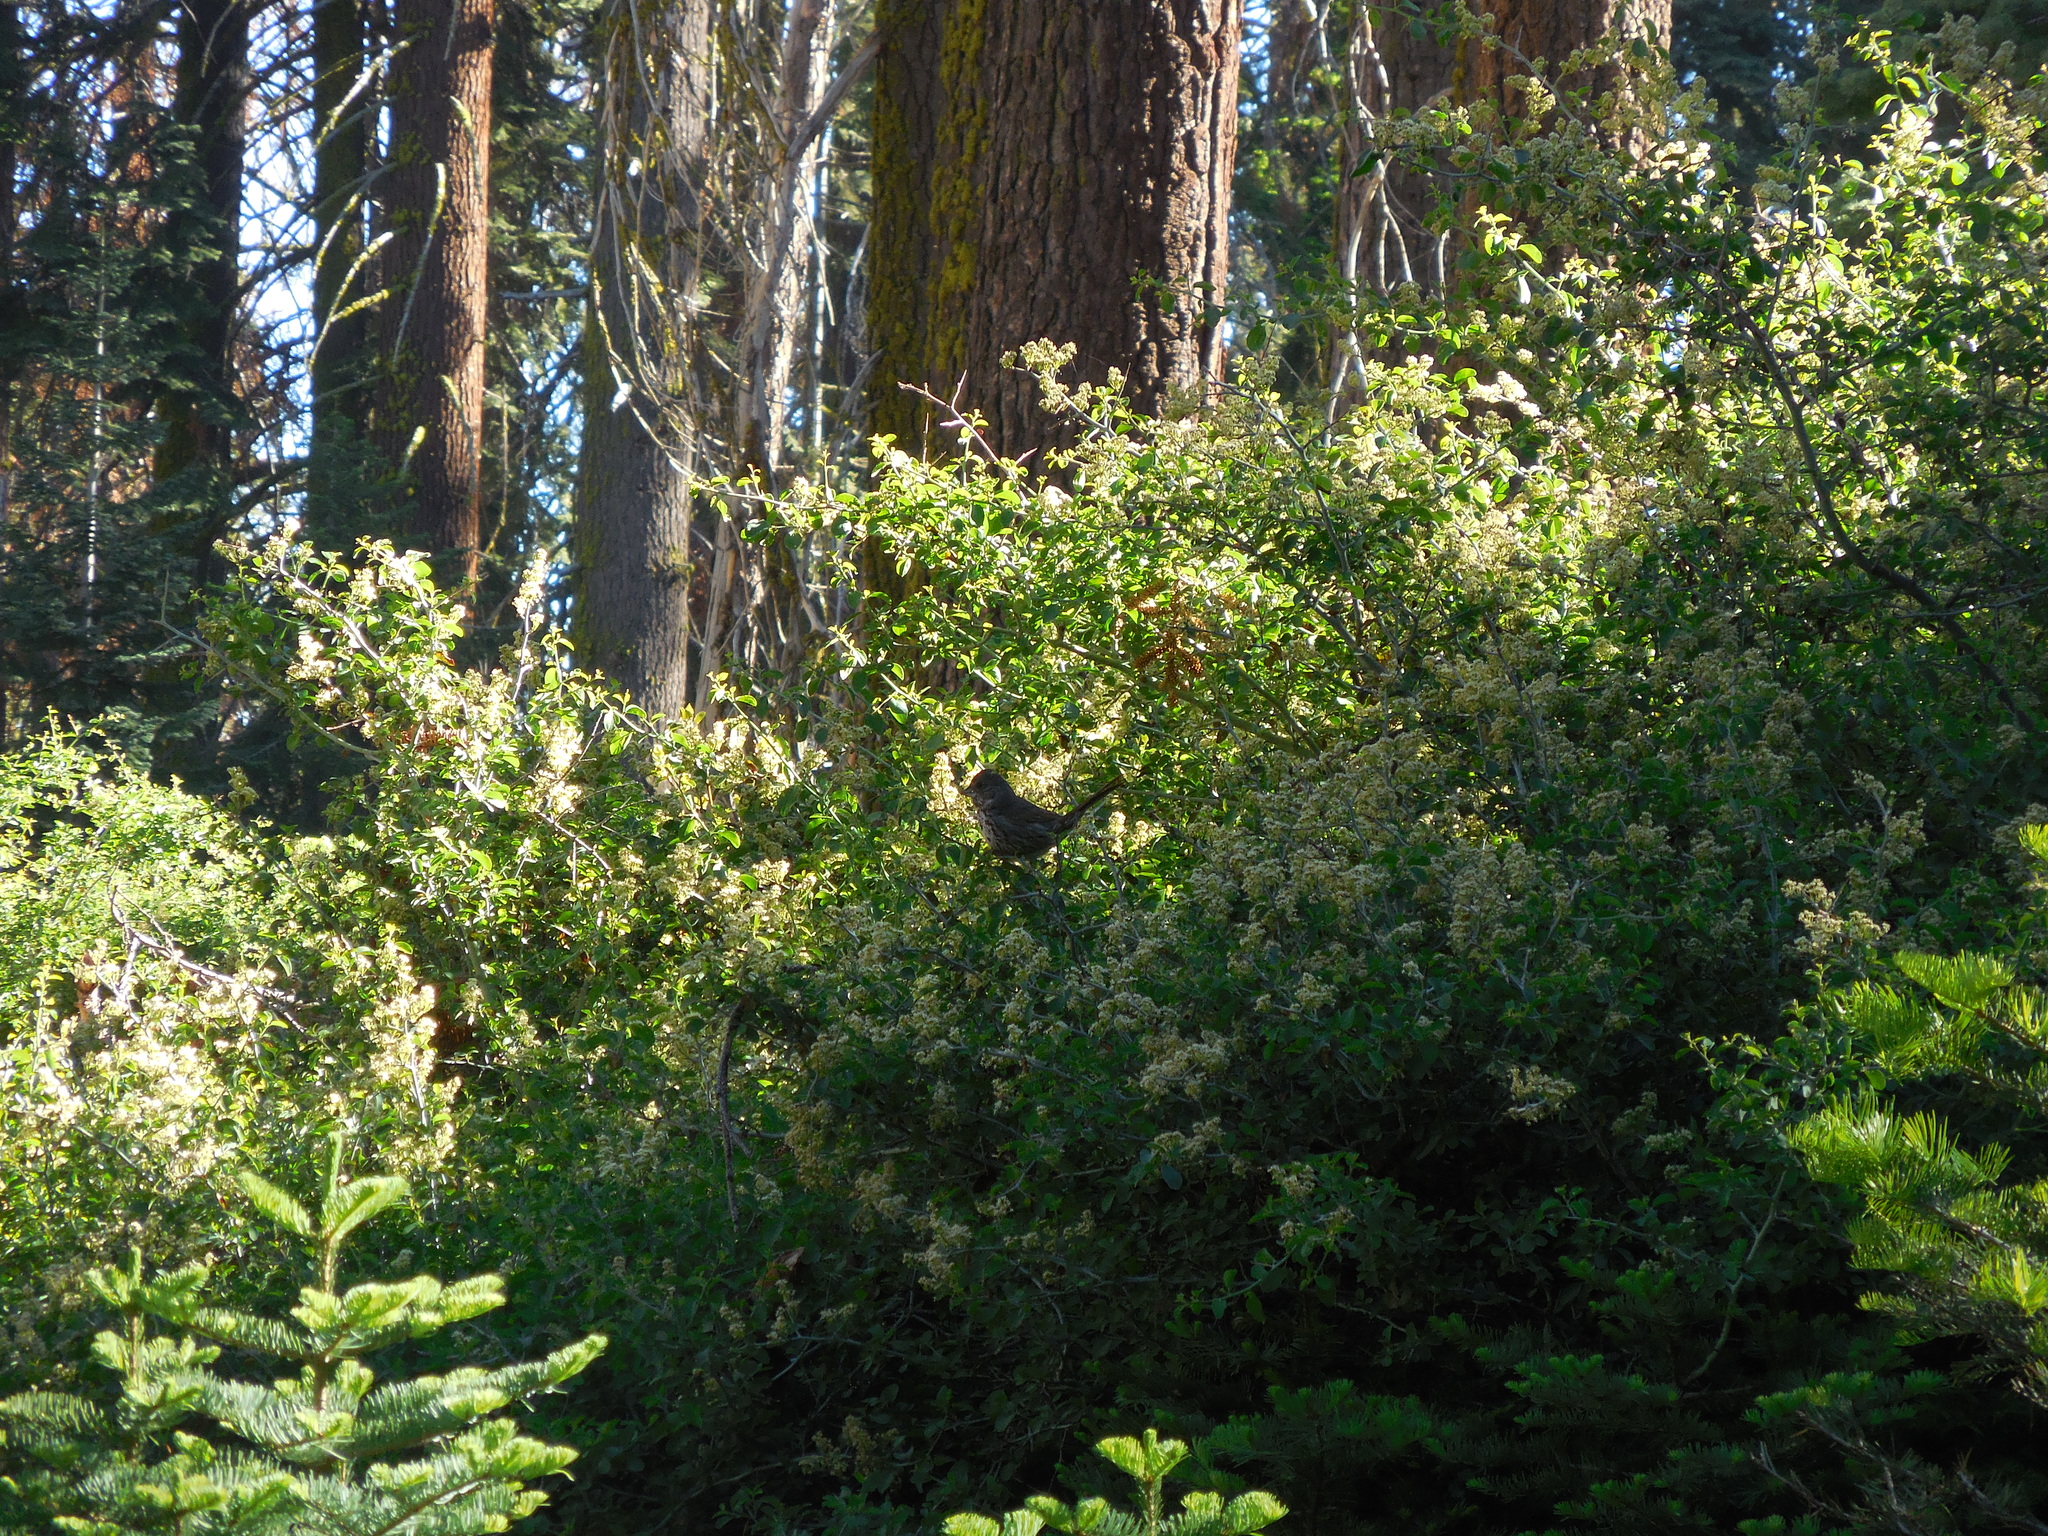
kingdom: Animalia
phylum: Chordata
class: Aves
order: Passeriformes
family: Passerellidae
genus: Passerella
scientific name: Passerella iliaca
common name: Fox sparrow
